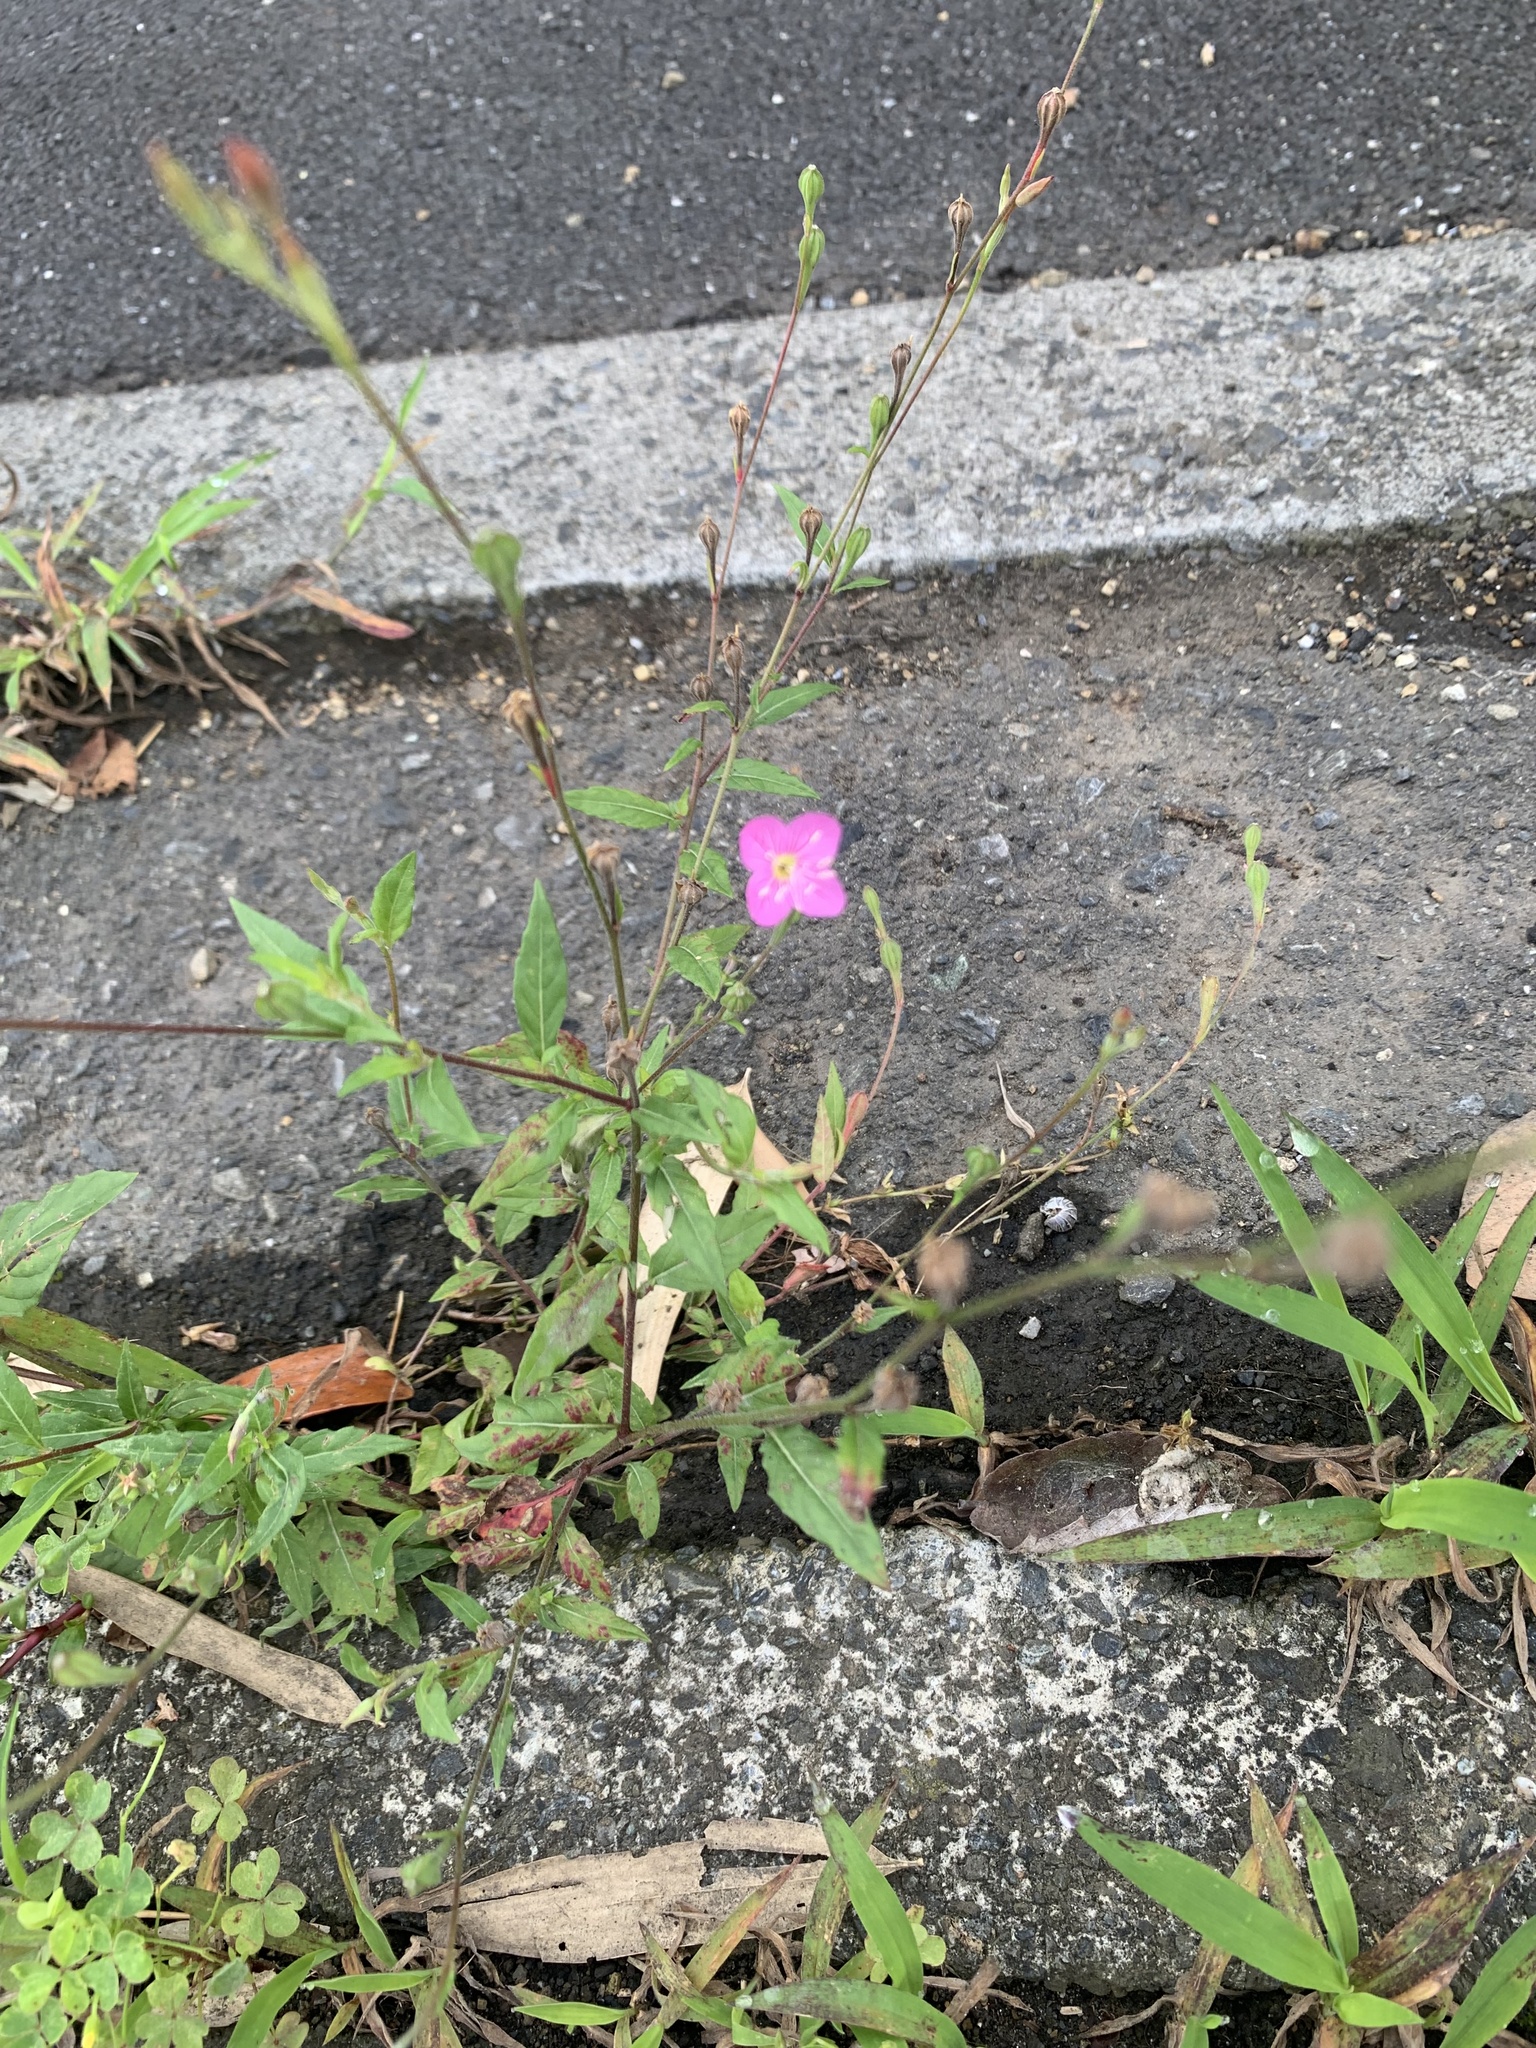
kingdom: Plantae
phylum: Tracheophyta
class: Magnoliopsida
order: Myrtales
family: Onagraceae
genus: Oenothera
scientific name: Oenothera rosea
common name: Rosy evening-primrose
